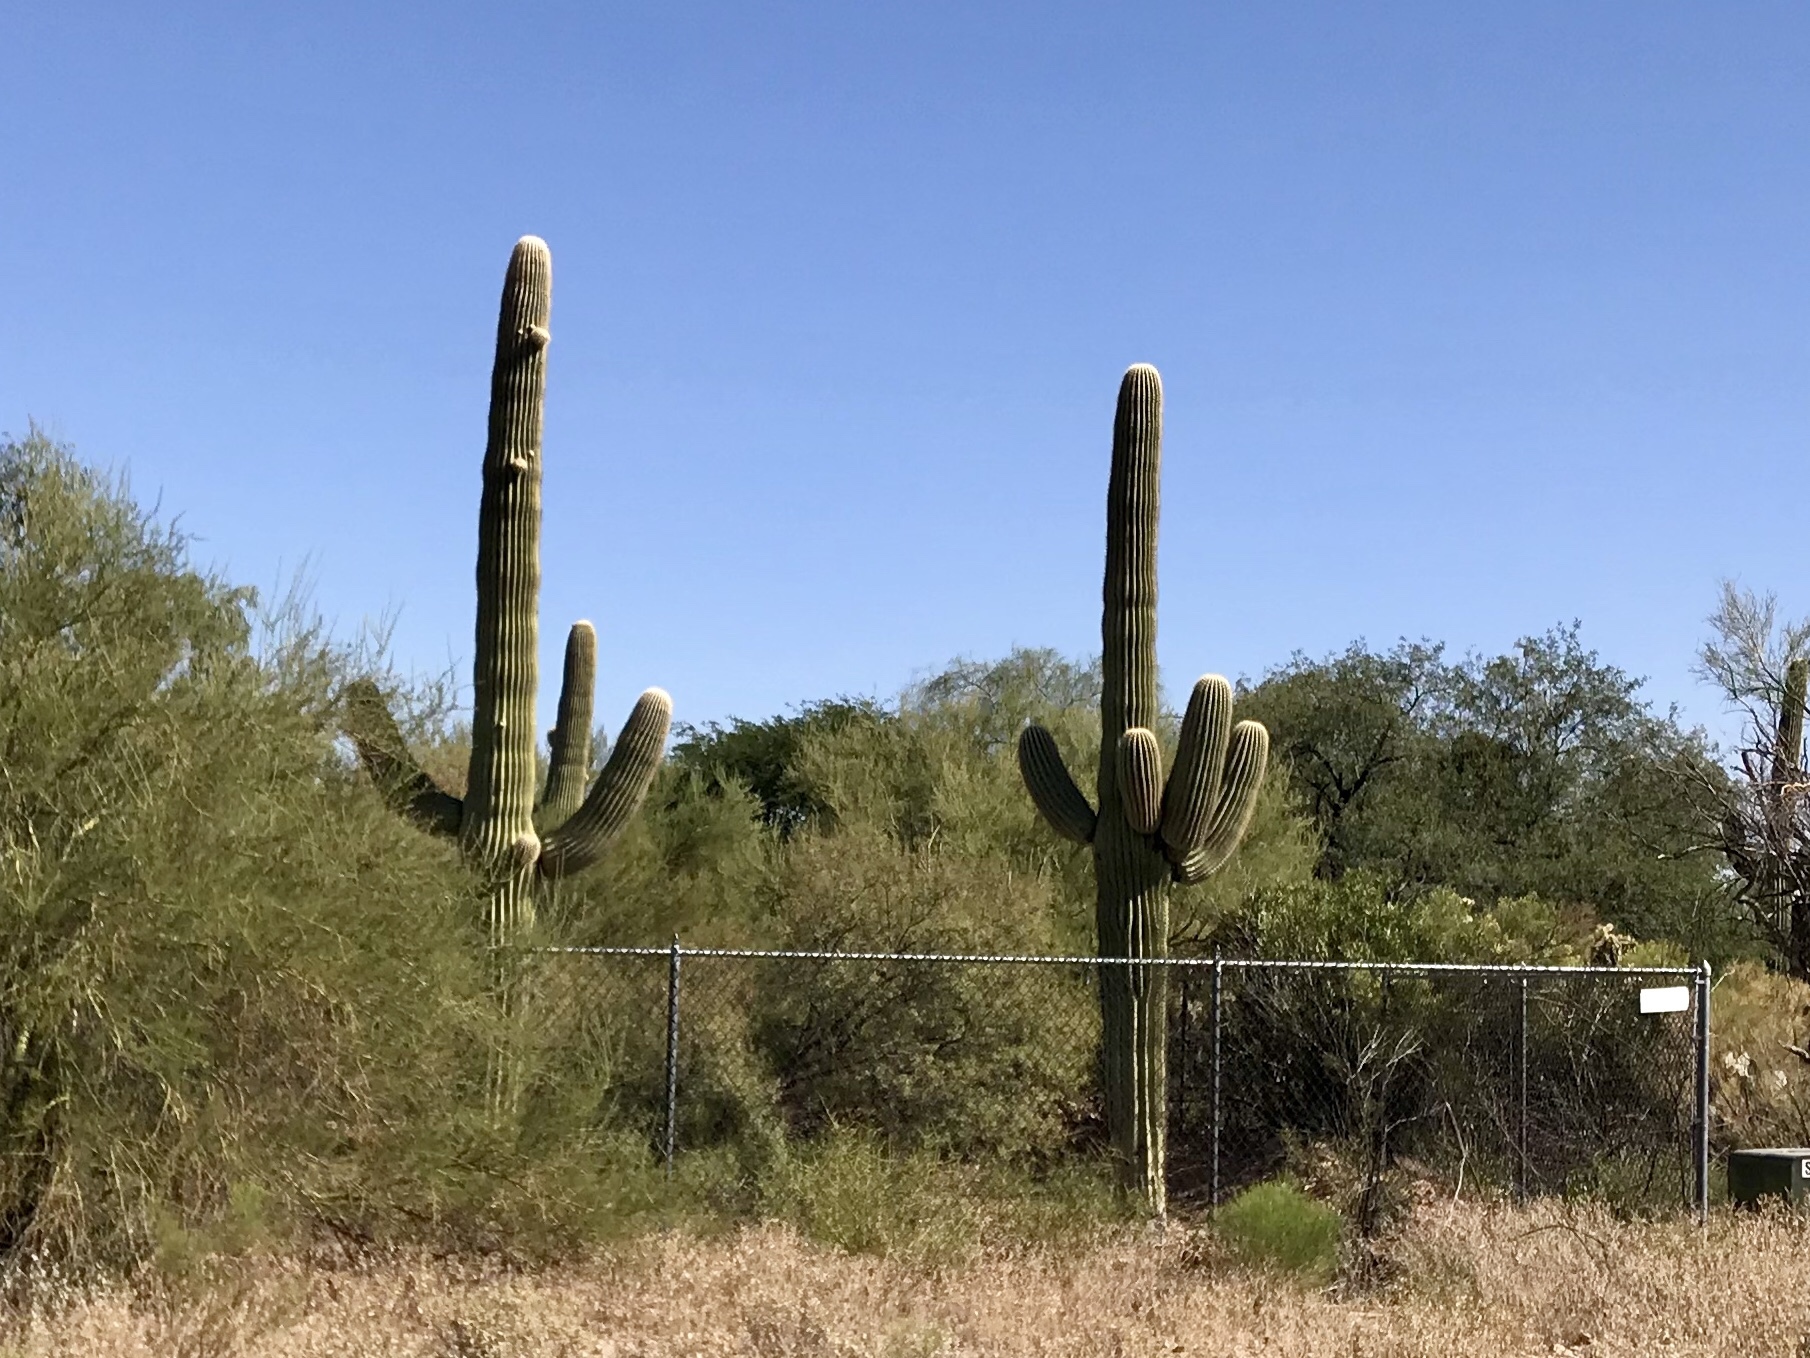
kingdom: Plantae
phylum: Tracheophyta
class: Magnoliopsida
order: Caryophyllales
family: Cactaceae
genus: Carnegiea
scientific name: Carnegiea gigantea
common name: Saguaro
